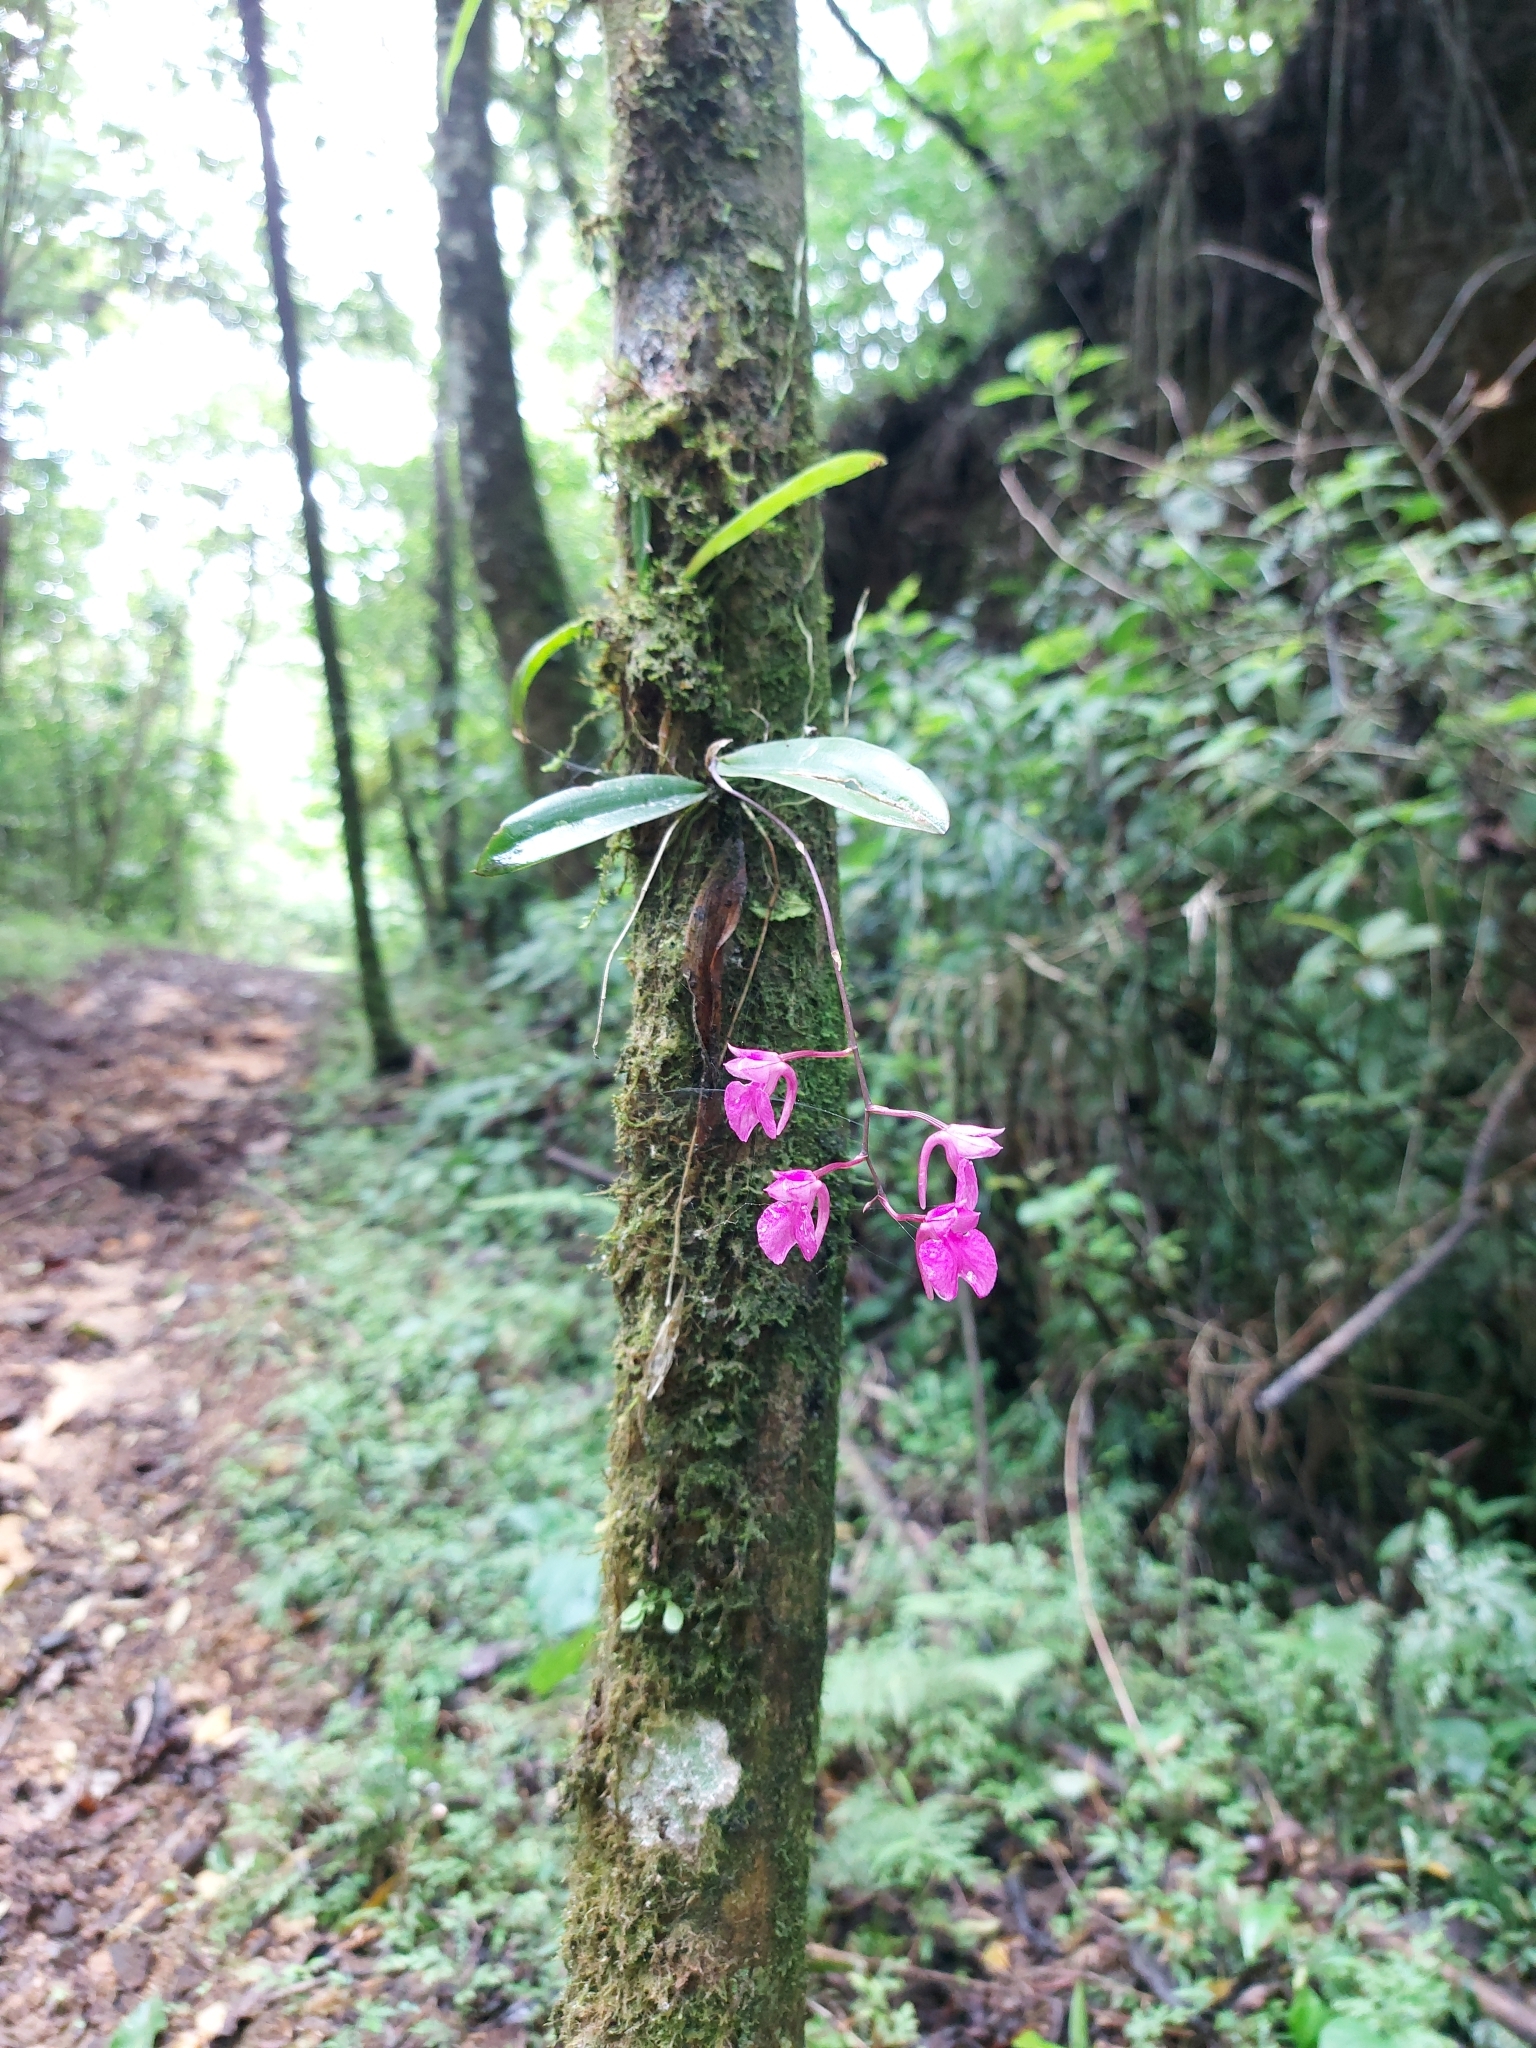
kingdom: Plantae
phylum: Tracheophyta
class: Liliopsida
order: Asparagales
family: Orchidaceae
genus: Comparettia
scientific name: Comparettia falcata
